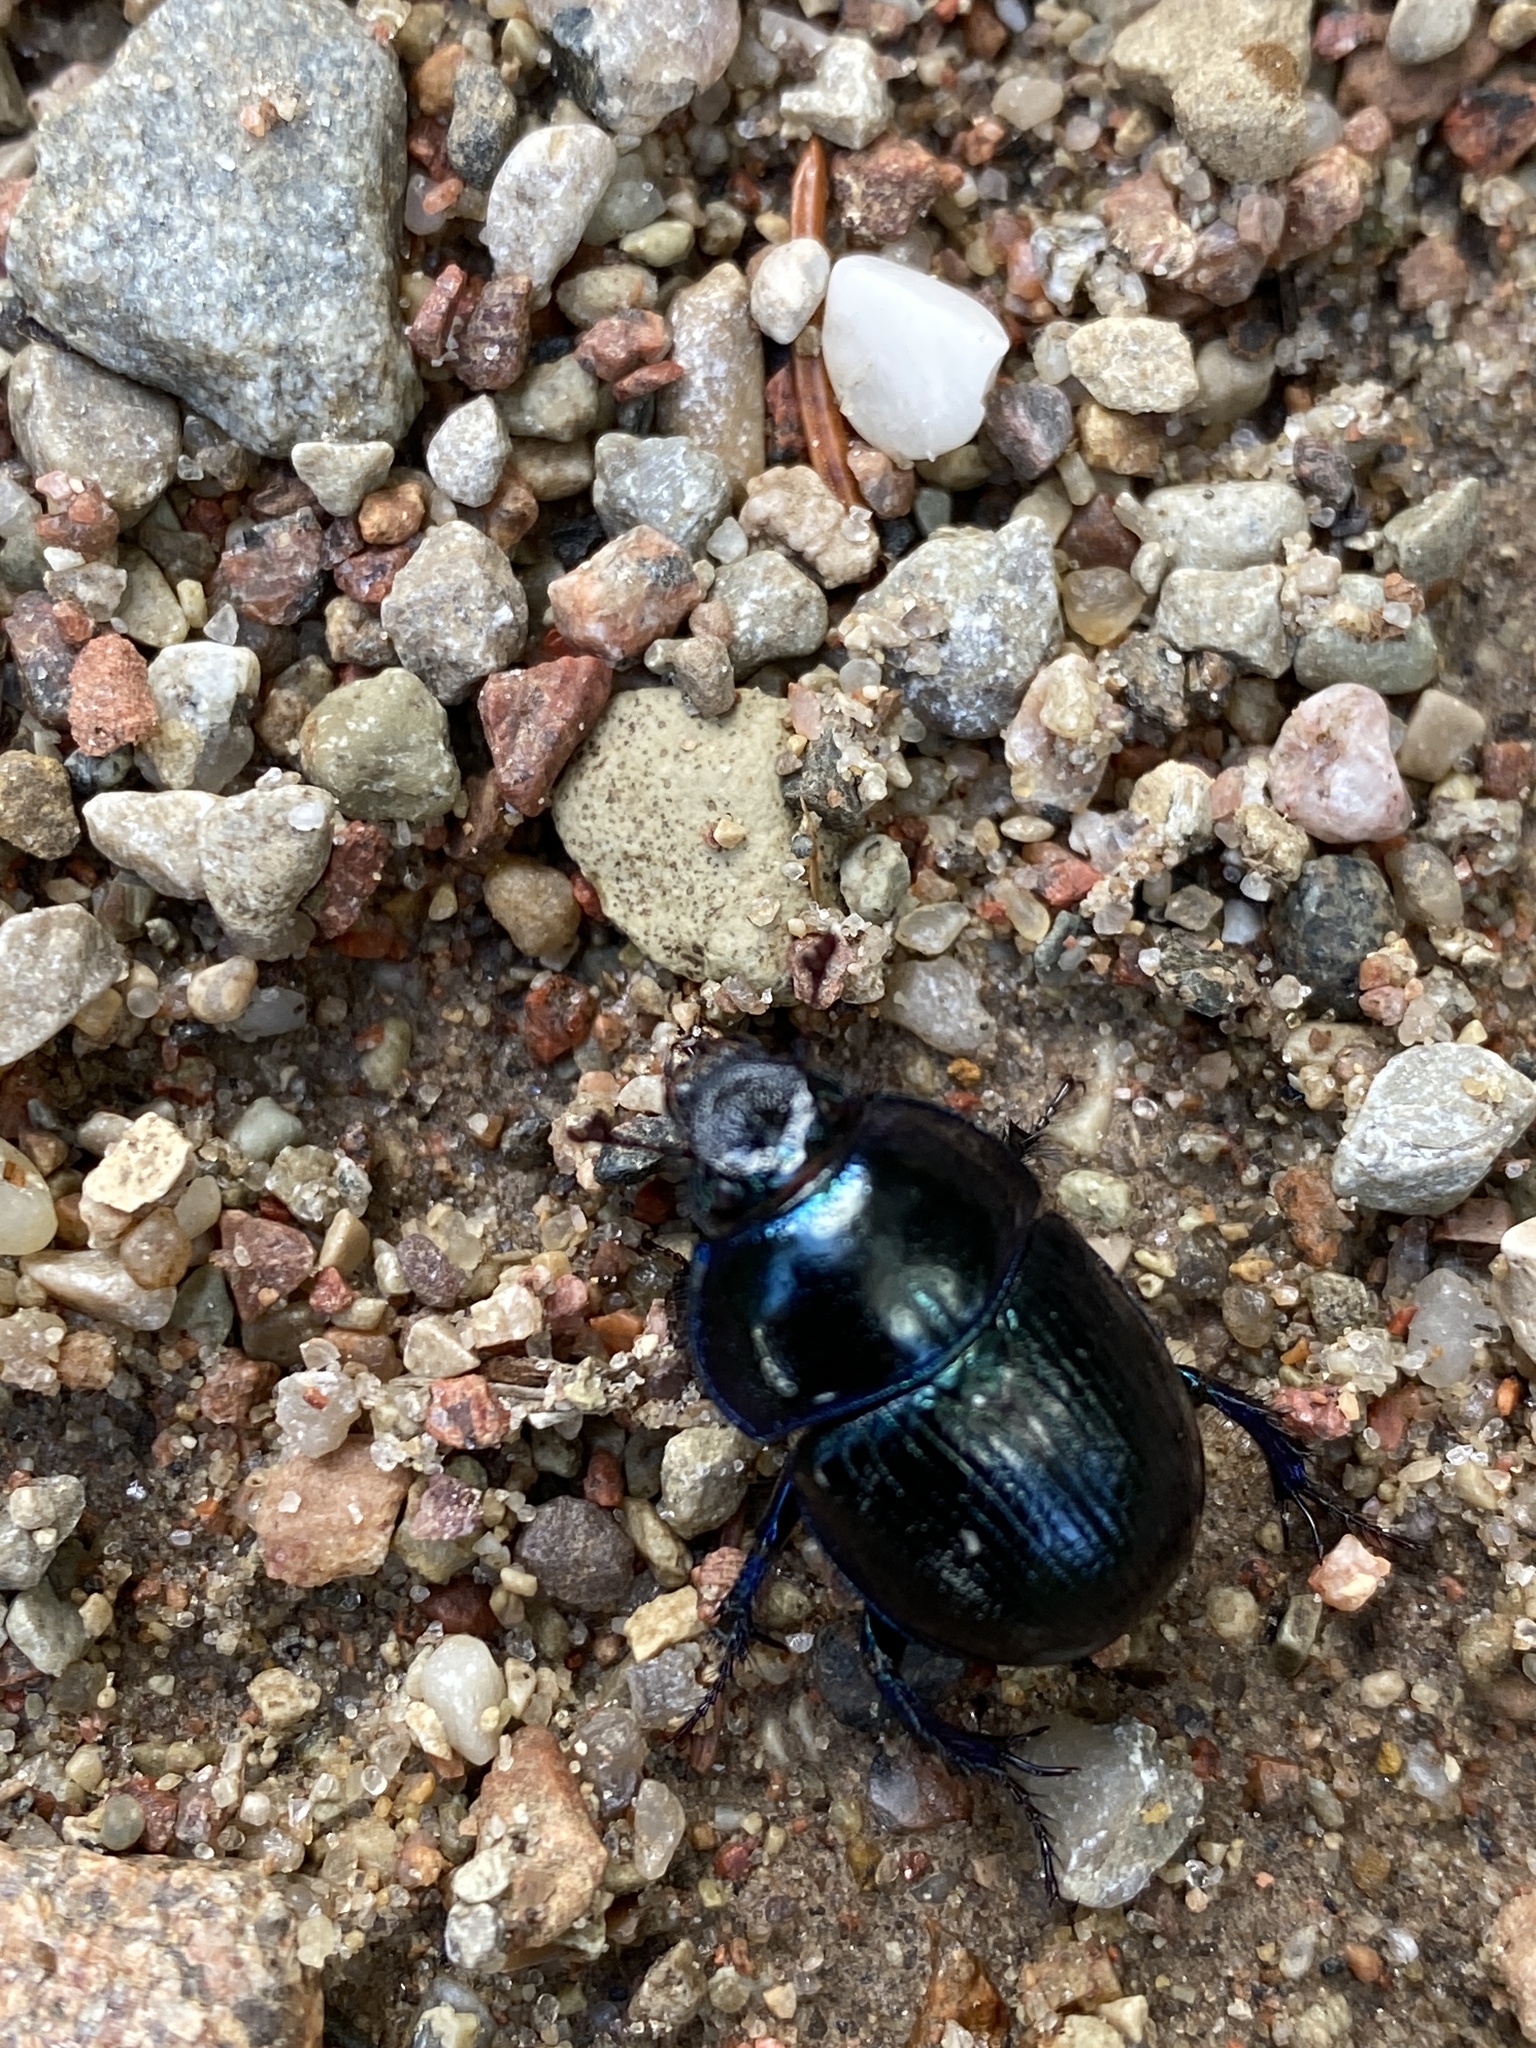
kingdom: Animalia
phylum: Arthropoda
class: Insecta
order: Coleoptera
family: Geotrupidae
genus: Anoplotrupes
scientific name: Anoplotrupes stercorosus
